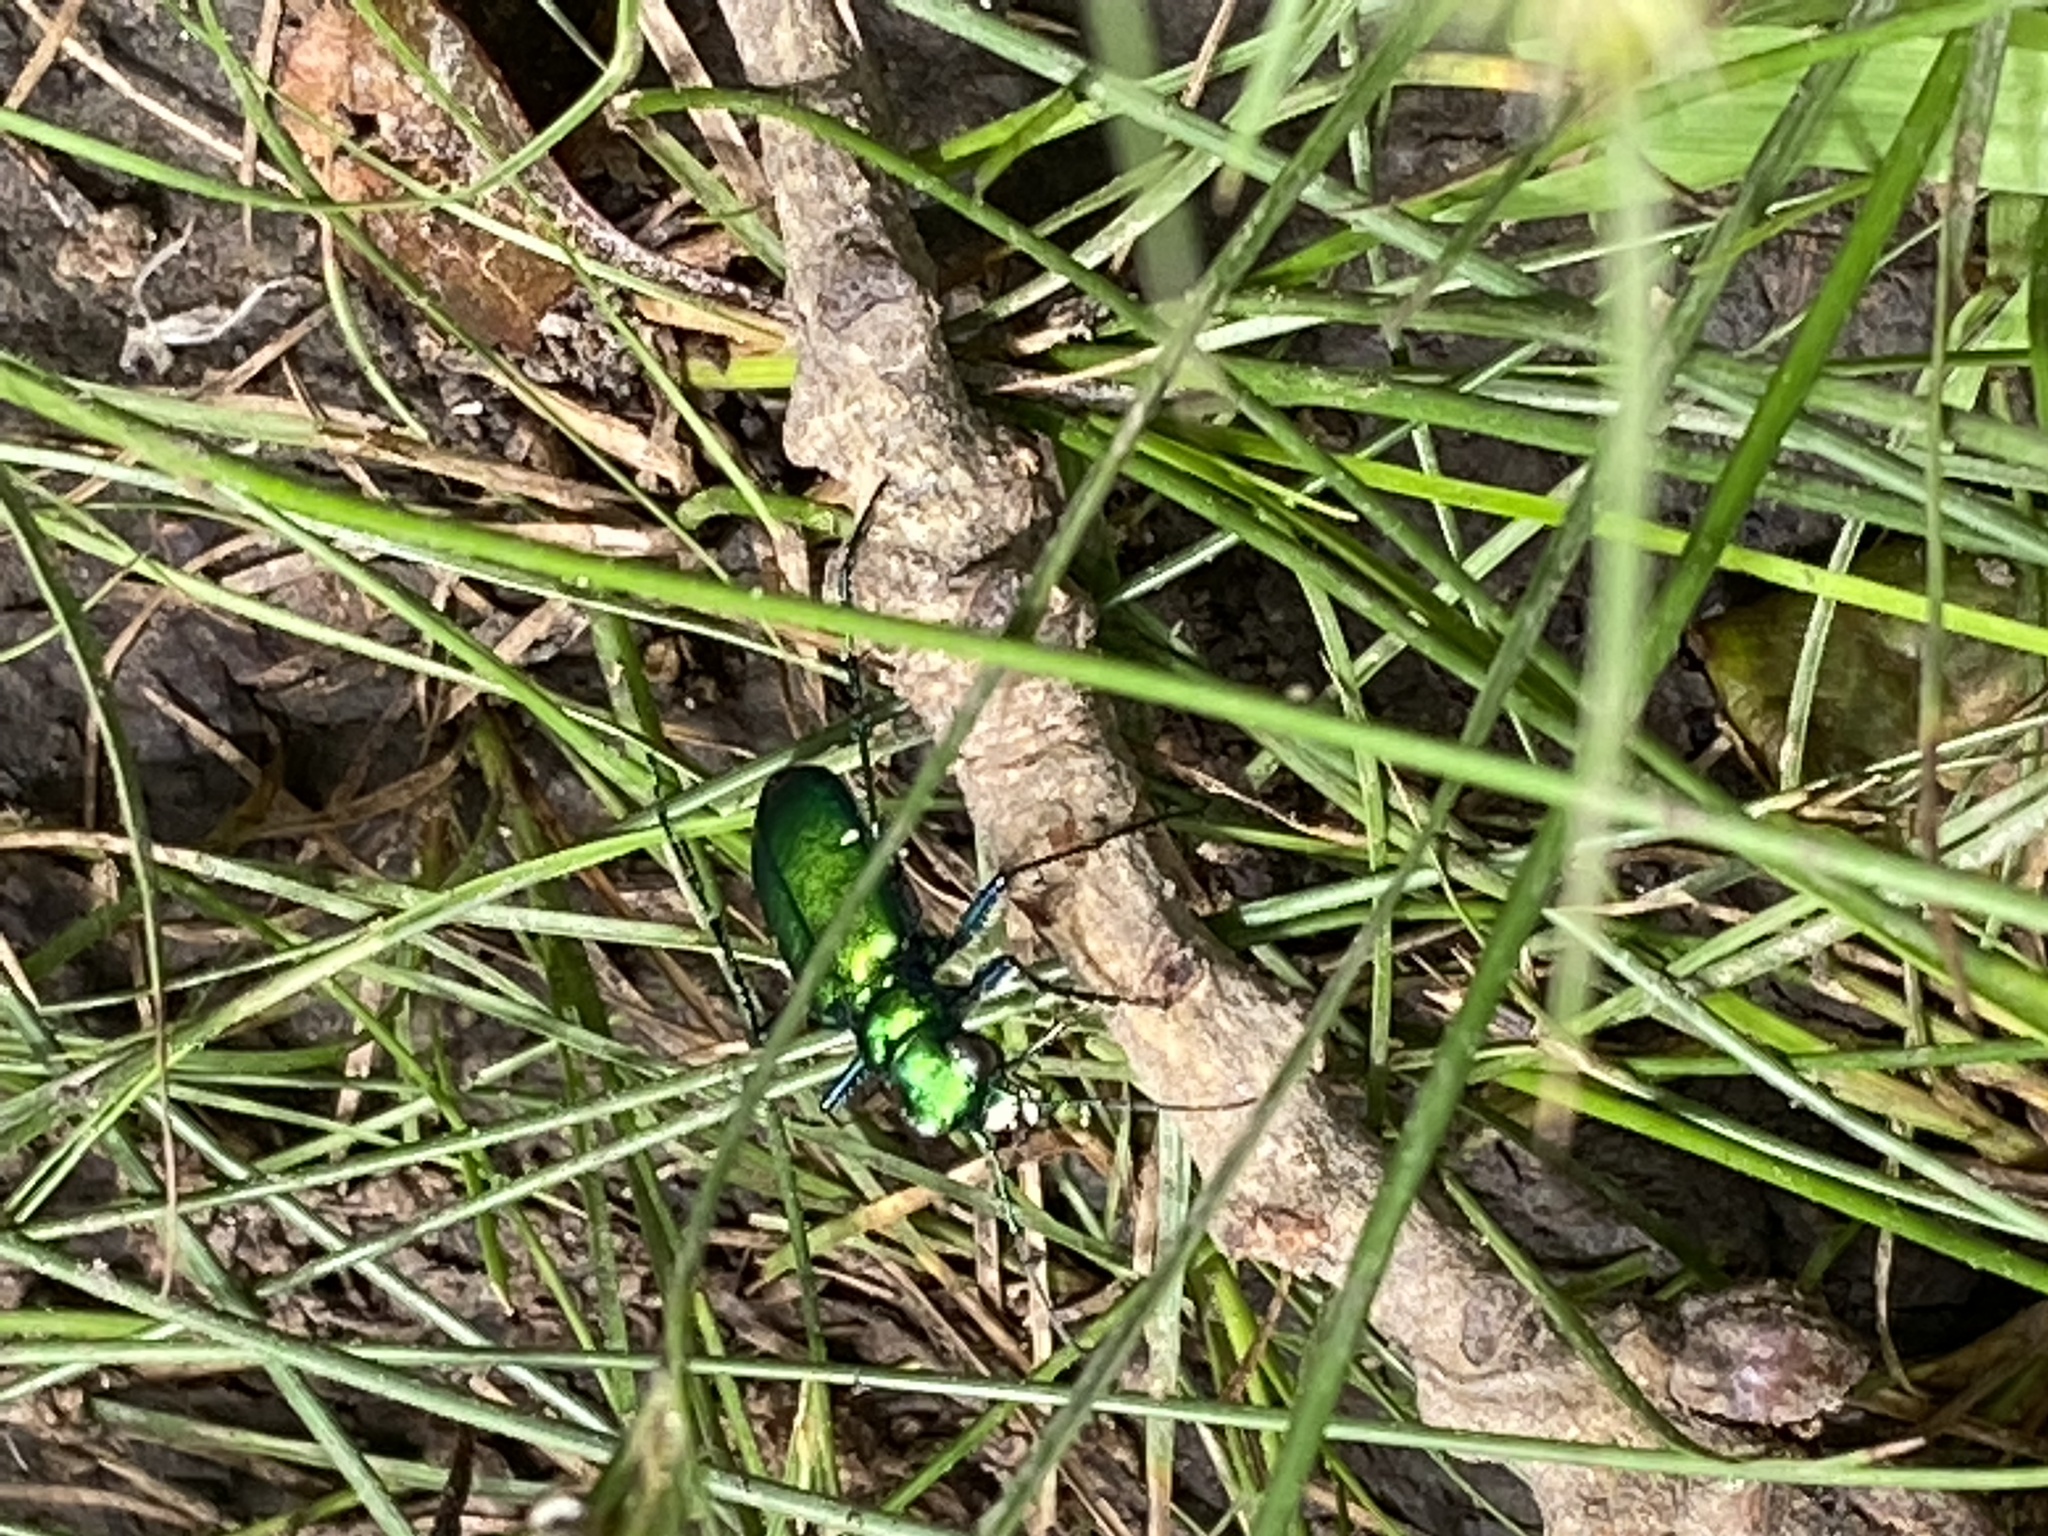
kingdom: Animalia
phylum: Arthropoda
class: Insecta
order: Coleoptera
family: Carabidae
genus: Cicindela
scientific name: Cicindela sexguttata
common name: Six-spotted tiger beetle
